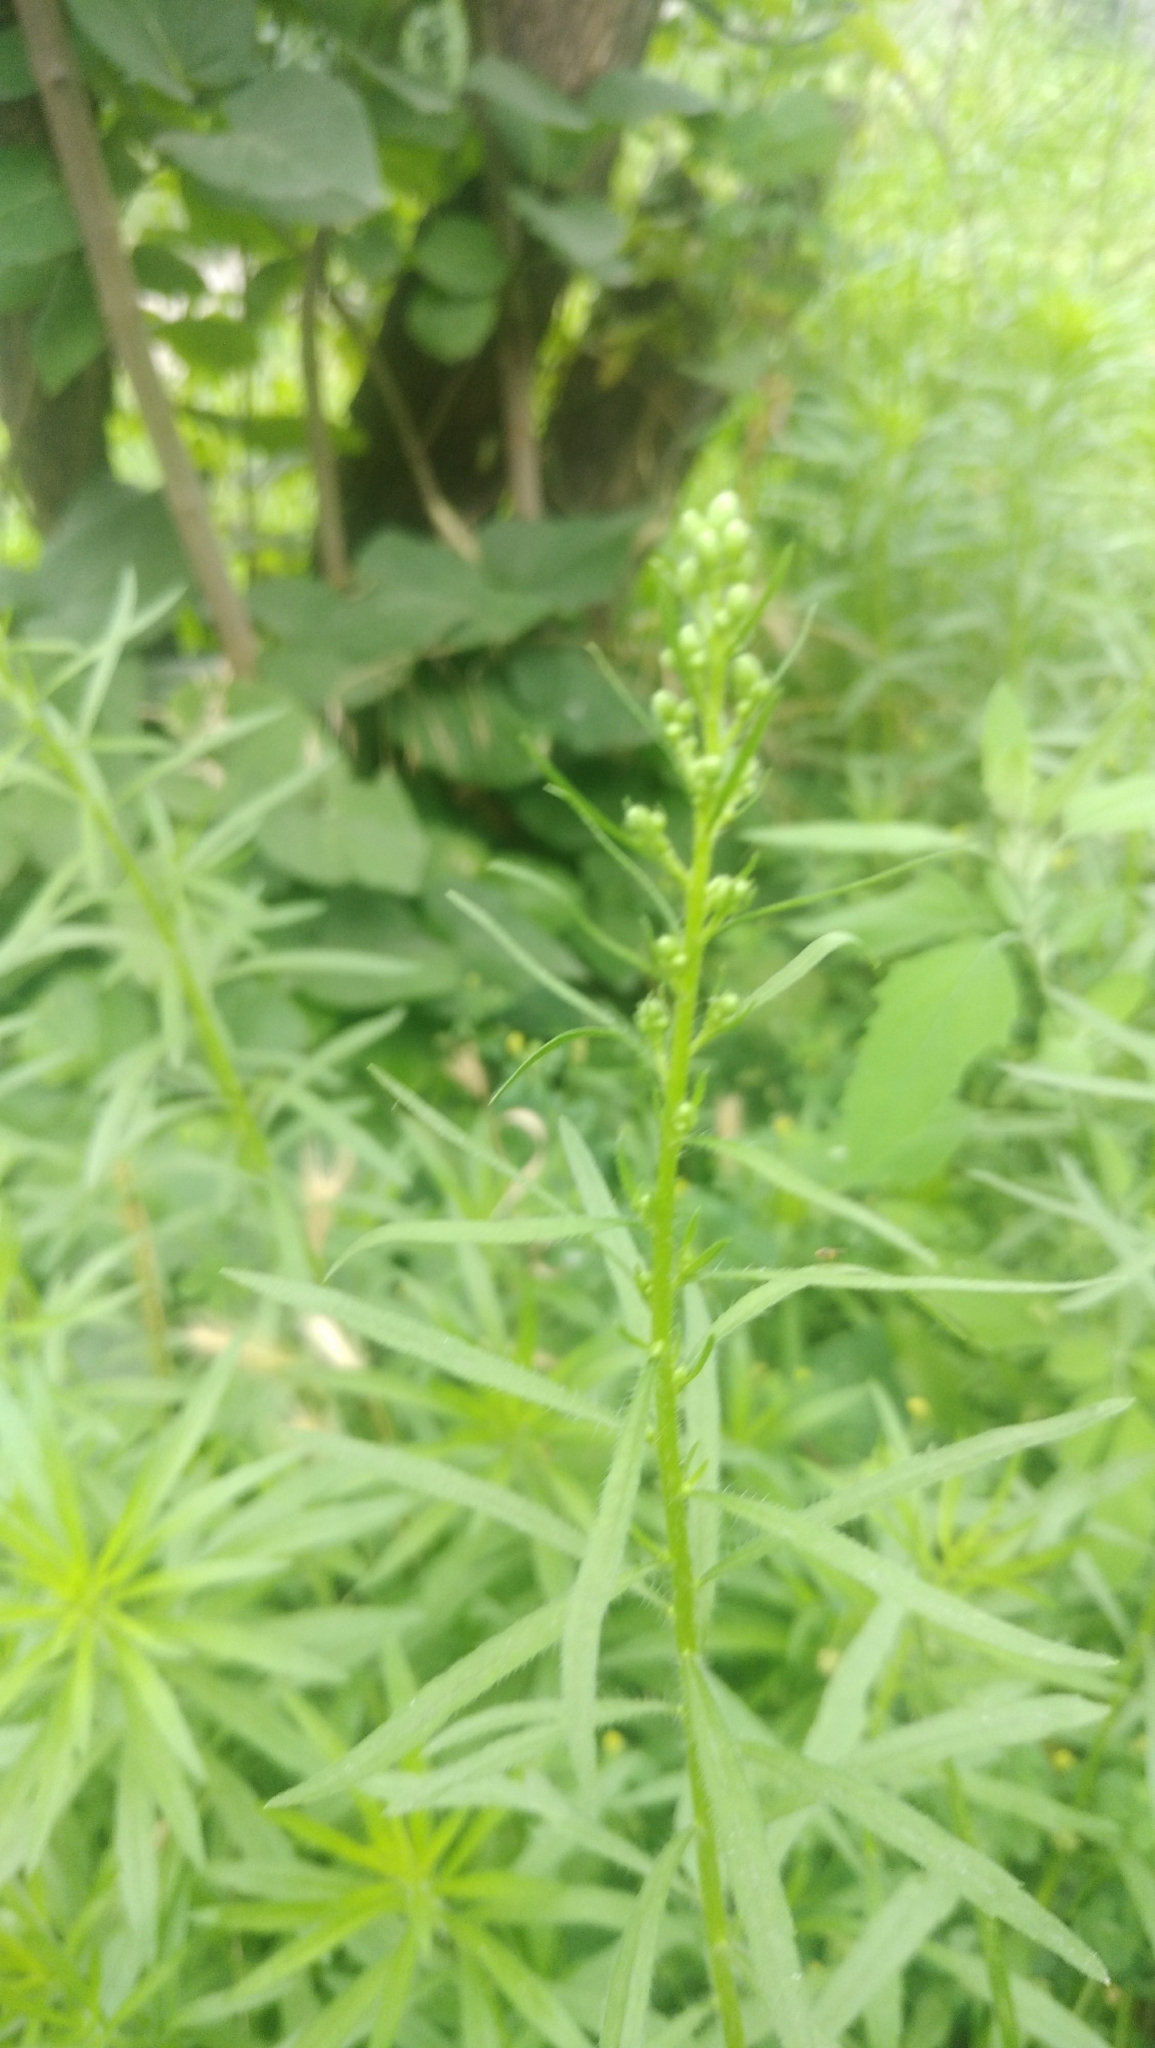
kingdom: Plantae
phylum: Tracheophyta
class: Magnoliopsida
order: Asterales
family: Asteraceae
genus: Erigeron
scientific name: Erigeron canadensis
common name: Canadian fleabane
